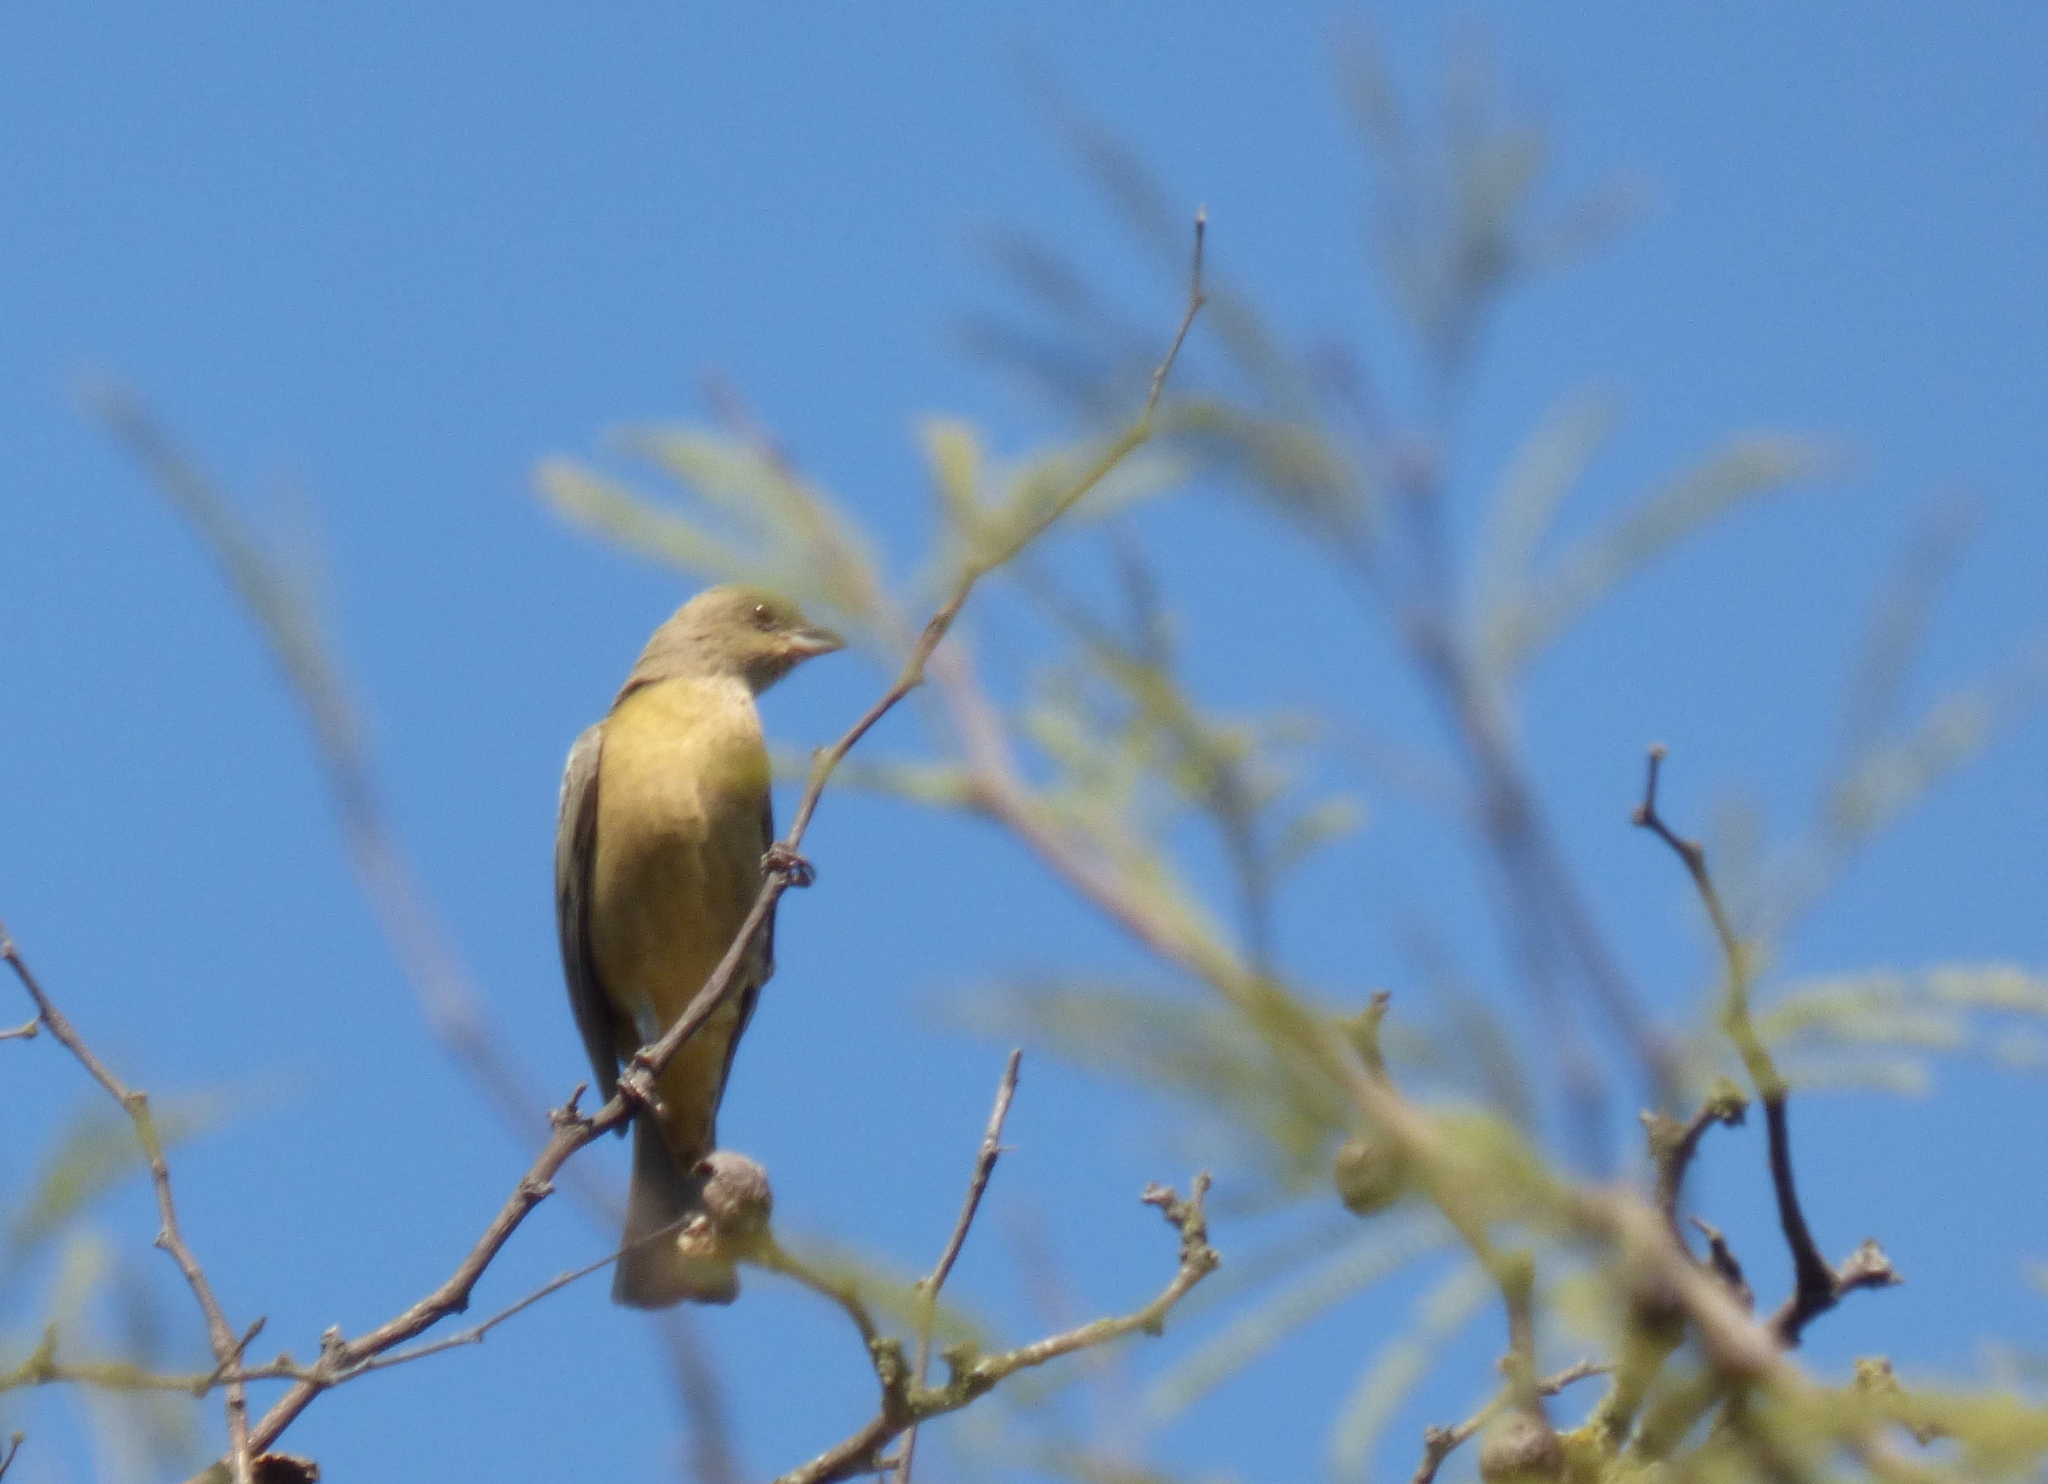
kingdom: Animalia
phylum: Chordata
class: Aves
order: Passeriformes
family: Thraupidae
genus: Rauenia
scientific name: Rauenia bonariensis
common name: Blue-and-yellow tanager
